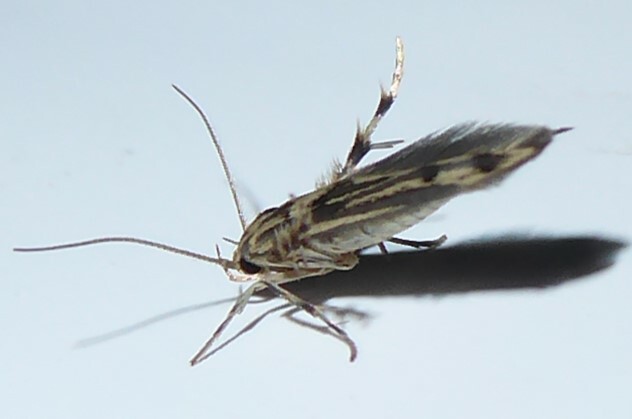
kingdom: Animalia
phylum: Arthropoda
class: Insecta
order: Lepidoptera
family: Stathmopodidae
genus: Stathmopoda
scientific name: Stathmopoda plumbiflua
